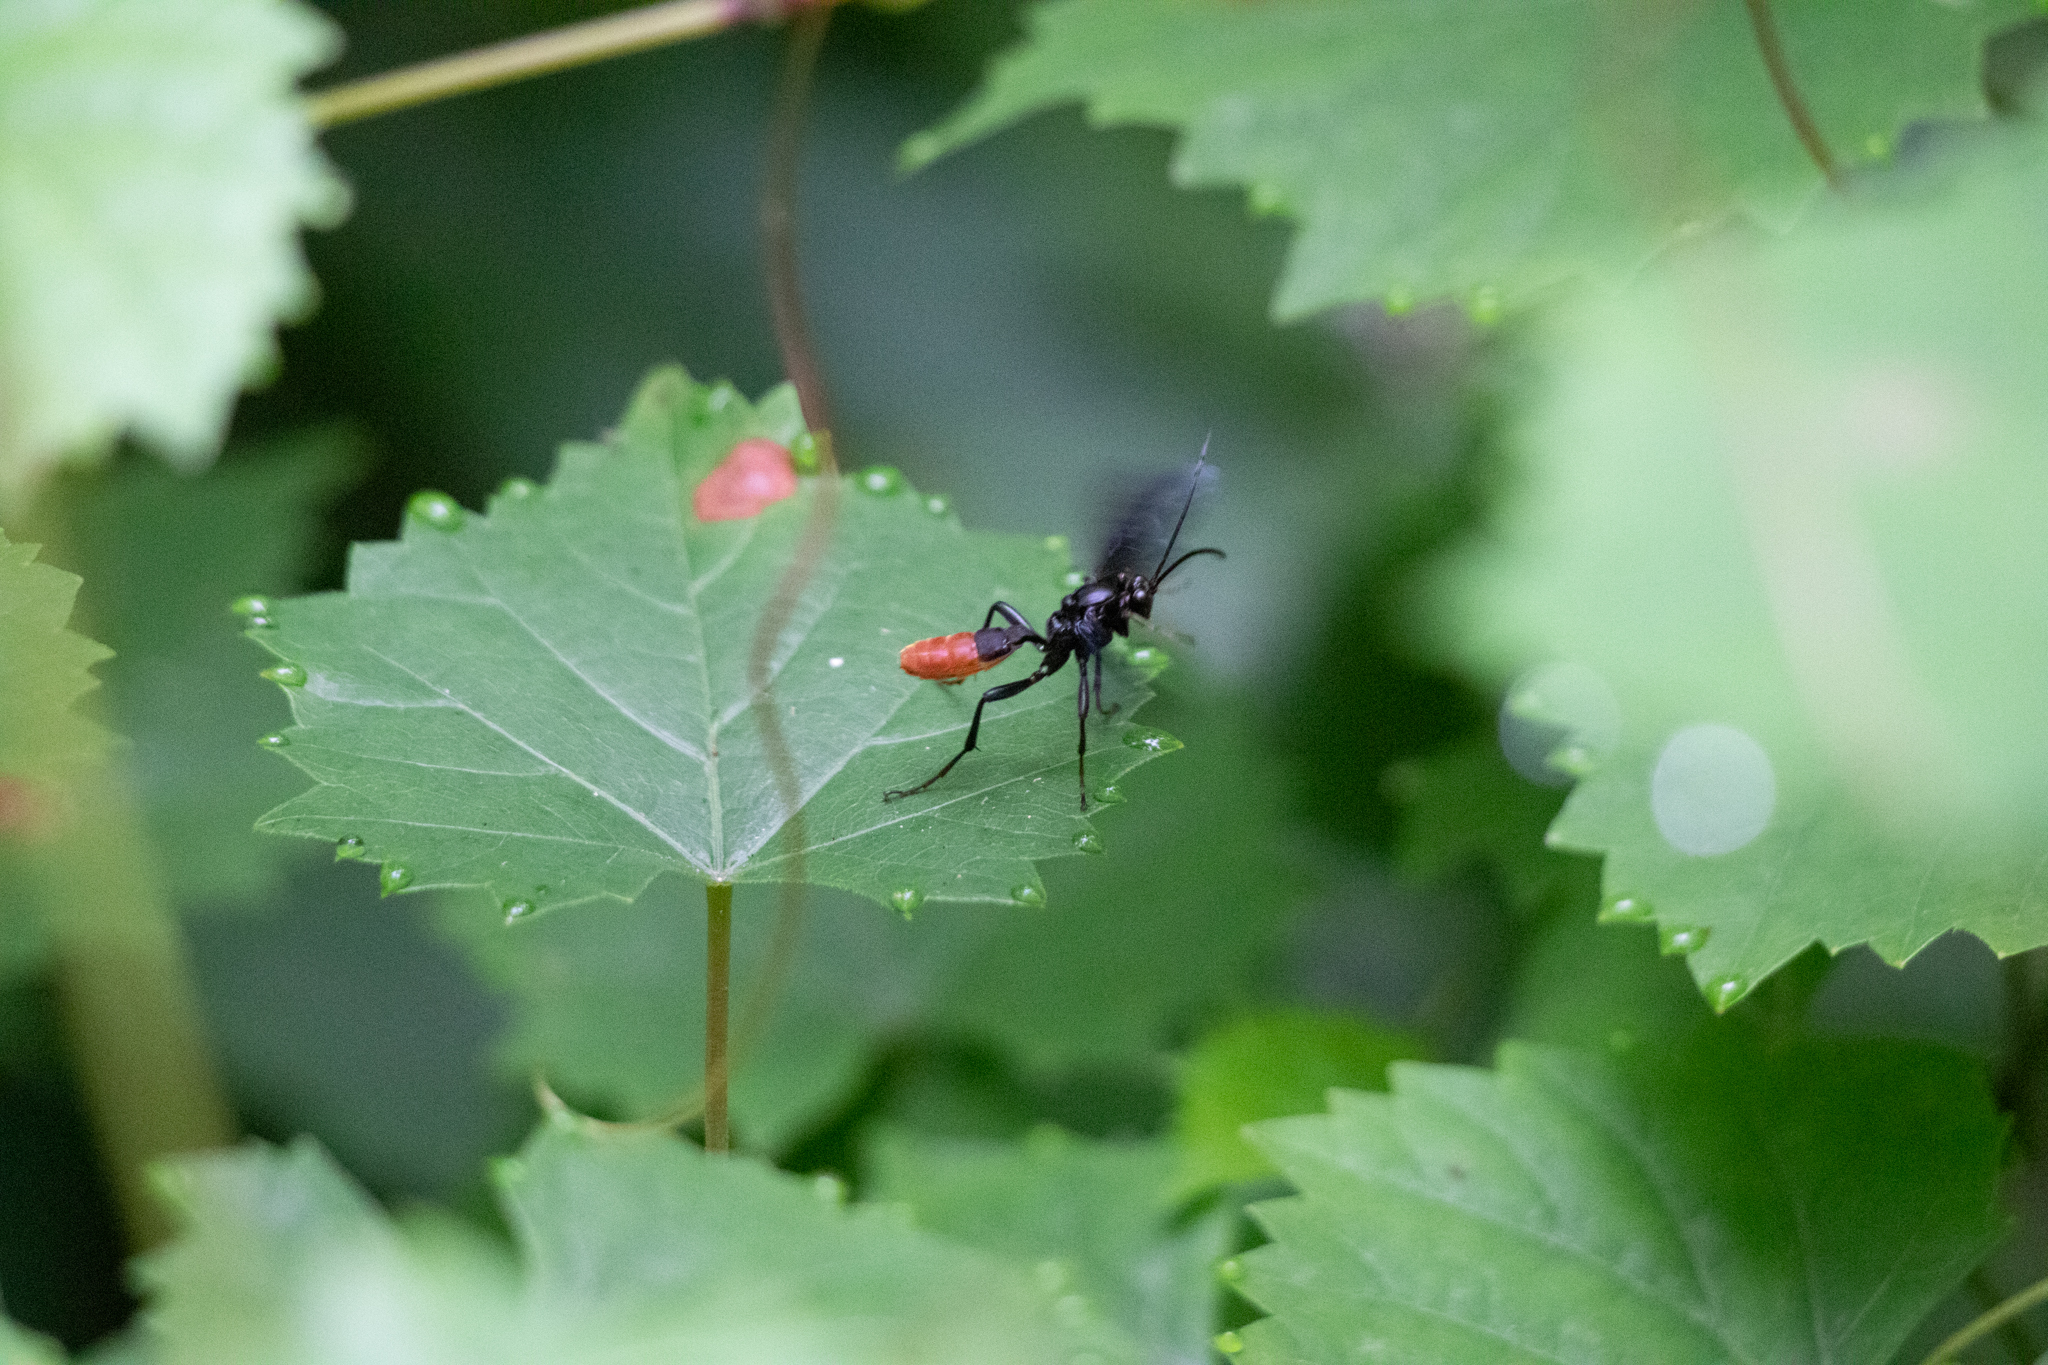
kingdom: Animalia
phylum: Arthropoda
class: Insecta
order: Hymenoptera
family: Ichneumonidae
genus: Saranaca
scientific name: Saranaca apicalis
